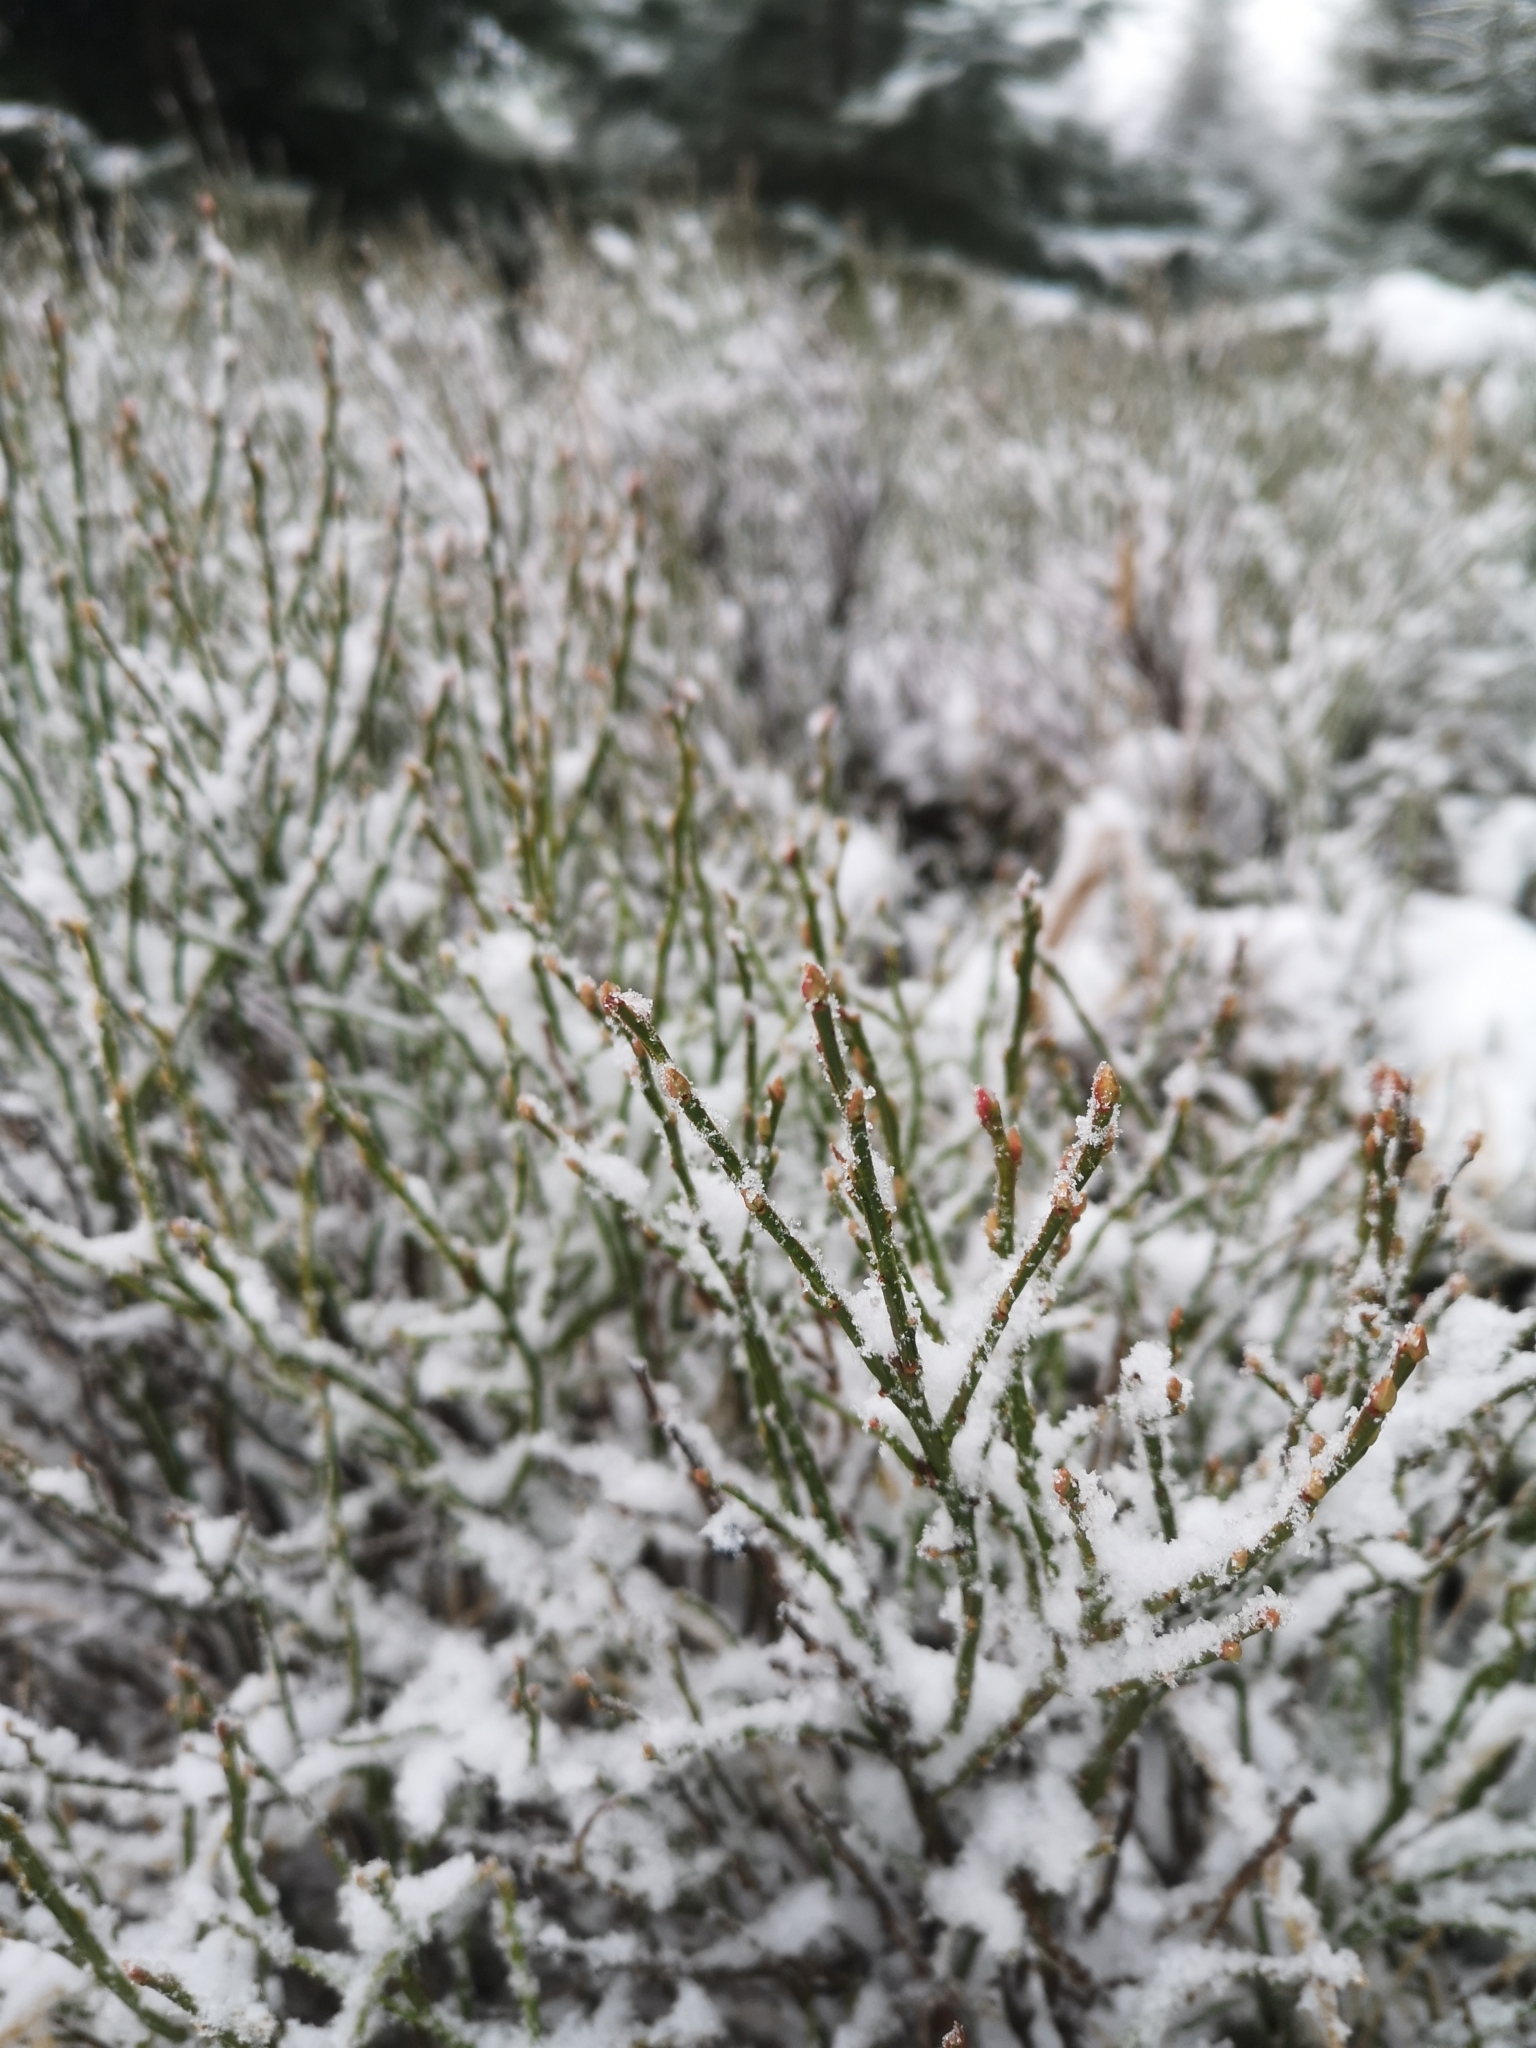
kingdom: Plantae
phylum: Tracheophyta
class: Magnoliopsida
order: Ericales
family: Ericaceae
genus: Vaccinium
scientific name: Vaccinium myrtillus
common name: Bilberry
